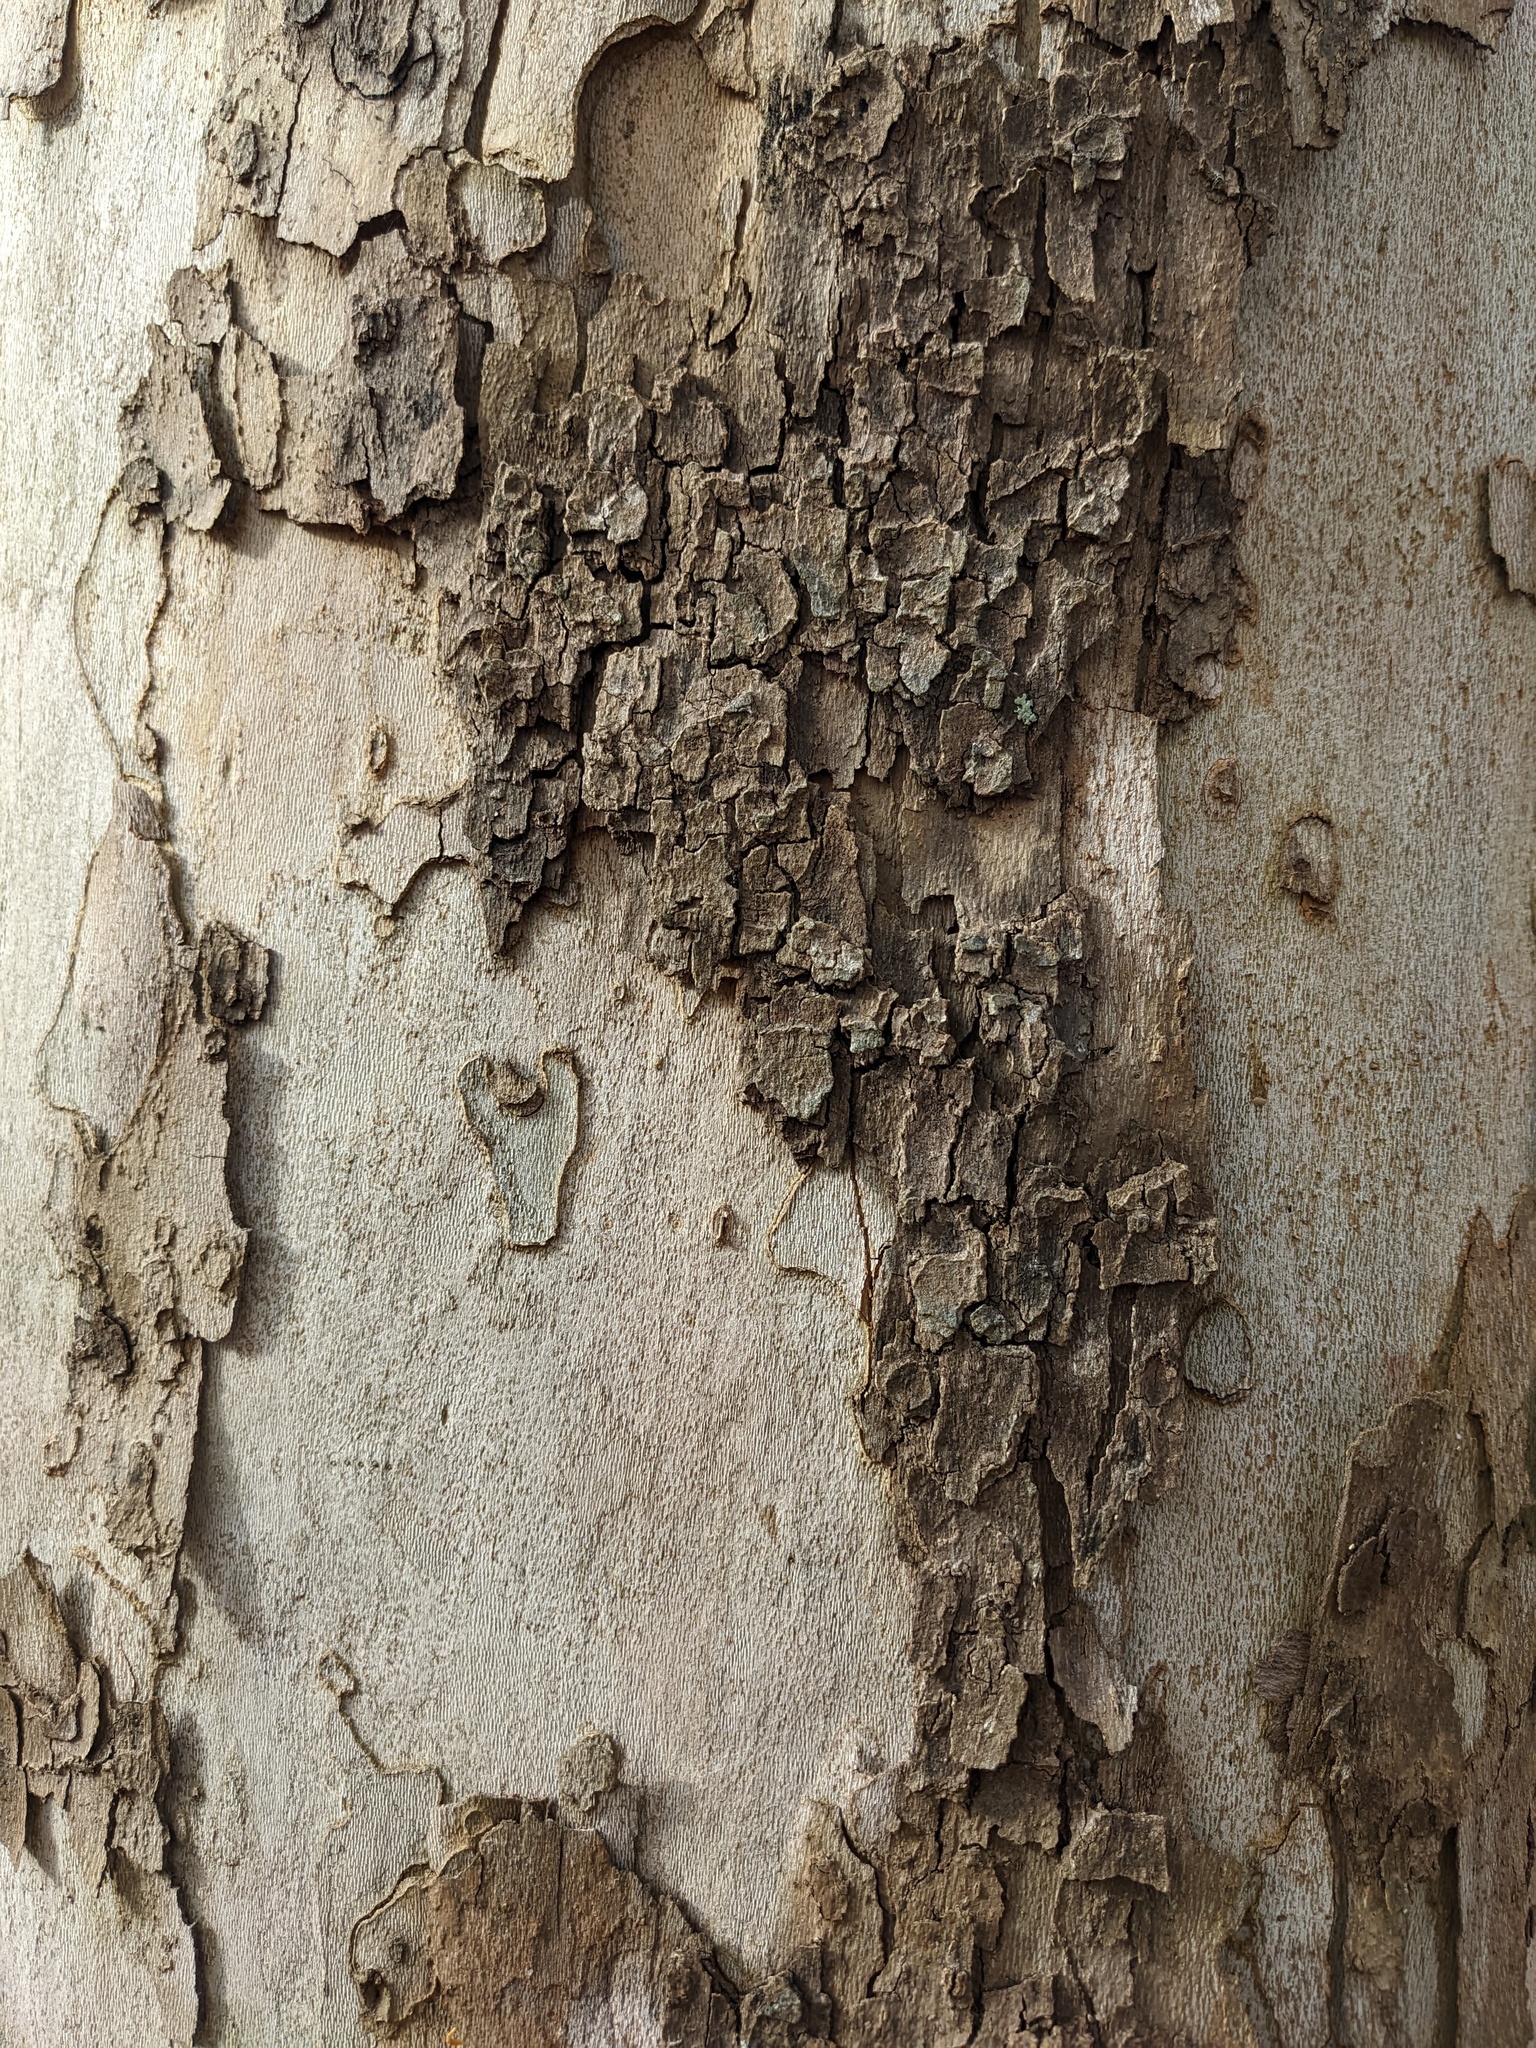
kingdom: Plantae
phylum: Tracheophyta
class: Magnoliopsida
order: Proteales
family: Platanaceae
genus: Platanus
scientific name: Platanus occidentalis
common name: American sycamore
